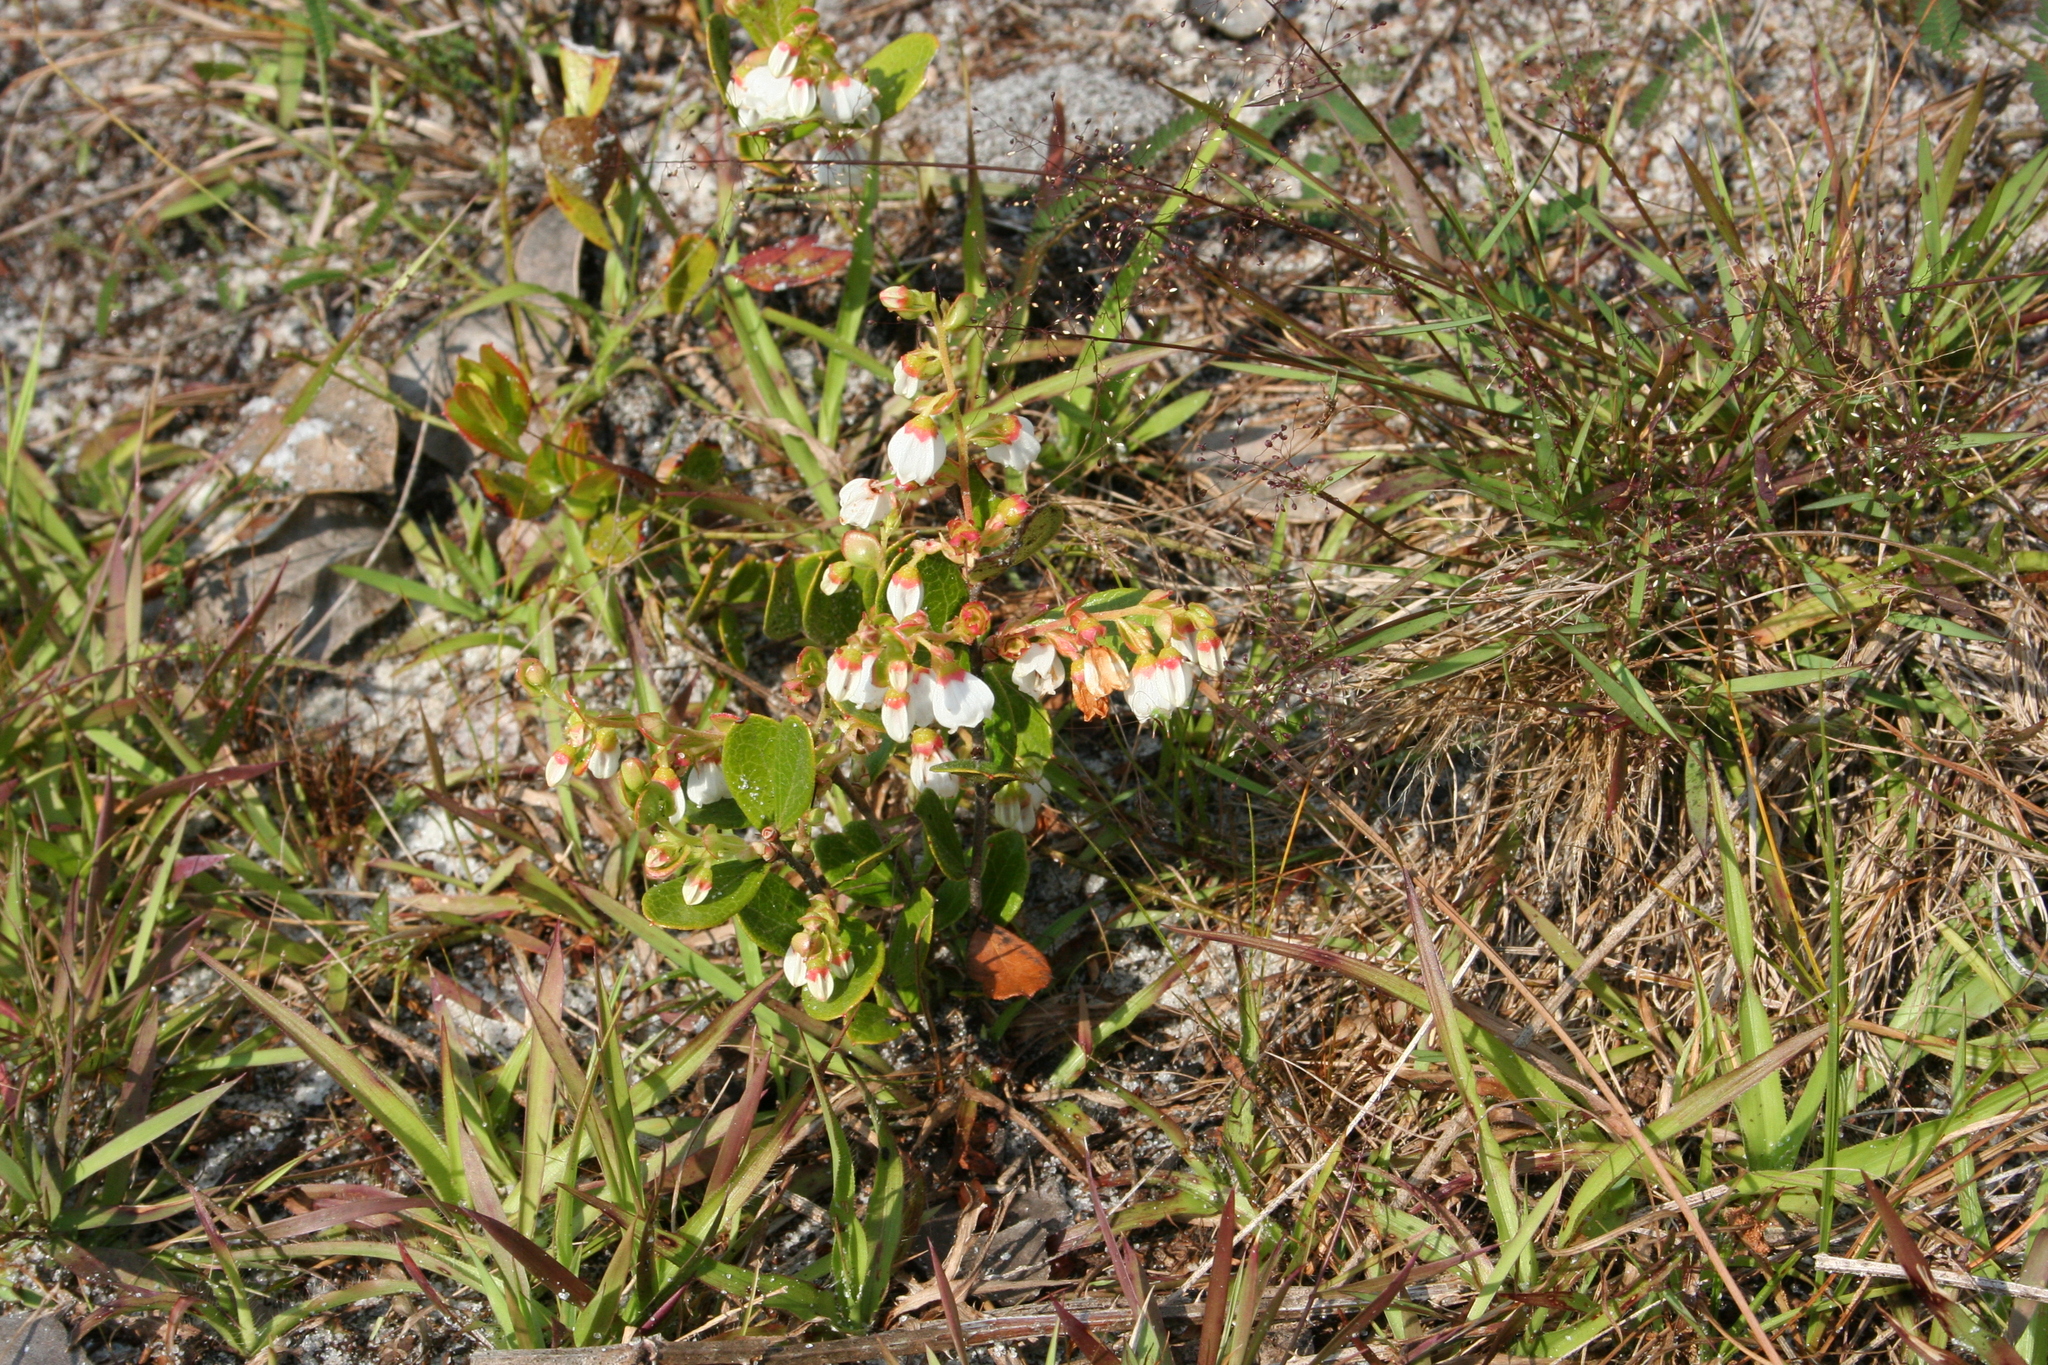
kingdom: Plantae
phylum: Tracheophyta
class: Magnoliopsida
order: Ericales
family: Ericaceae
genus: Gaylussacia
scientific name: Gaylussacia dumosa
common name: Dwarf huckleberry
